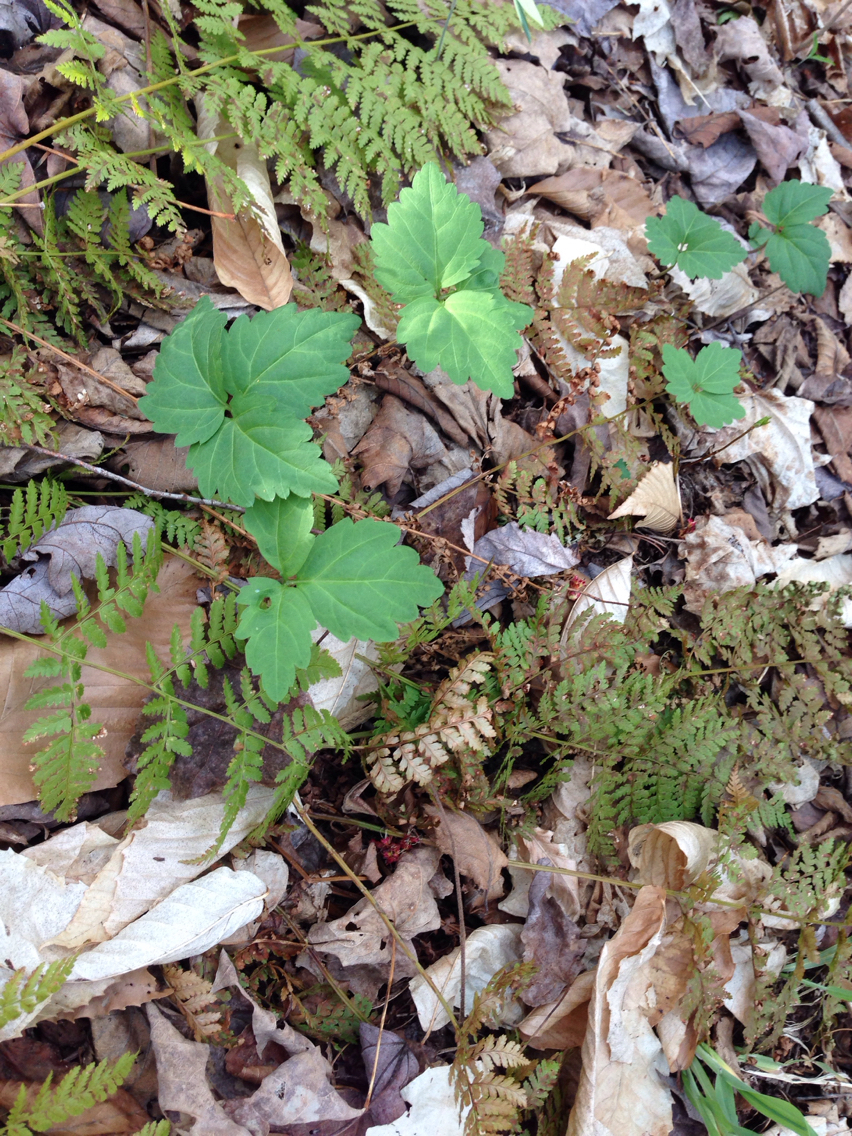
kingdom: Plantae
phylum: Tracheophyta
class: Magnoliopsida
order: Brassicales
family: Brassicaceae
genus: Cardamine
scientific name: Cardamine diphylla
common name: Broad-leaved toothwort
